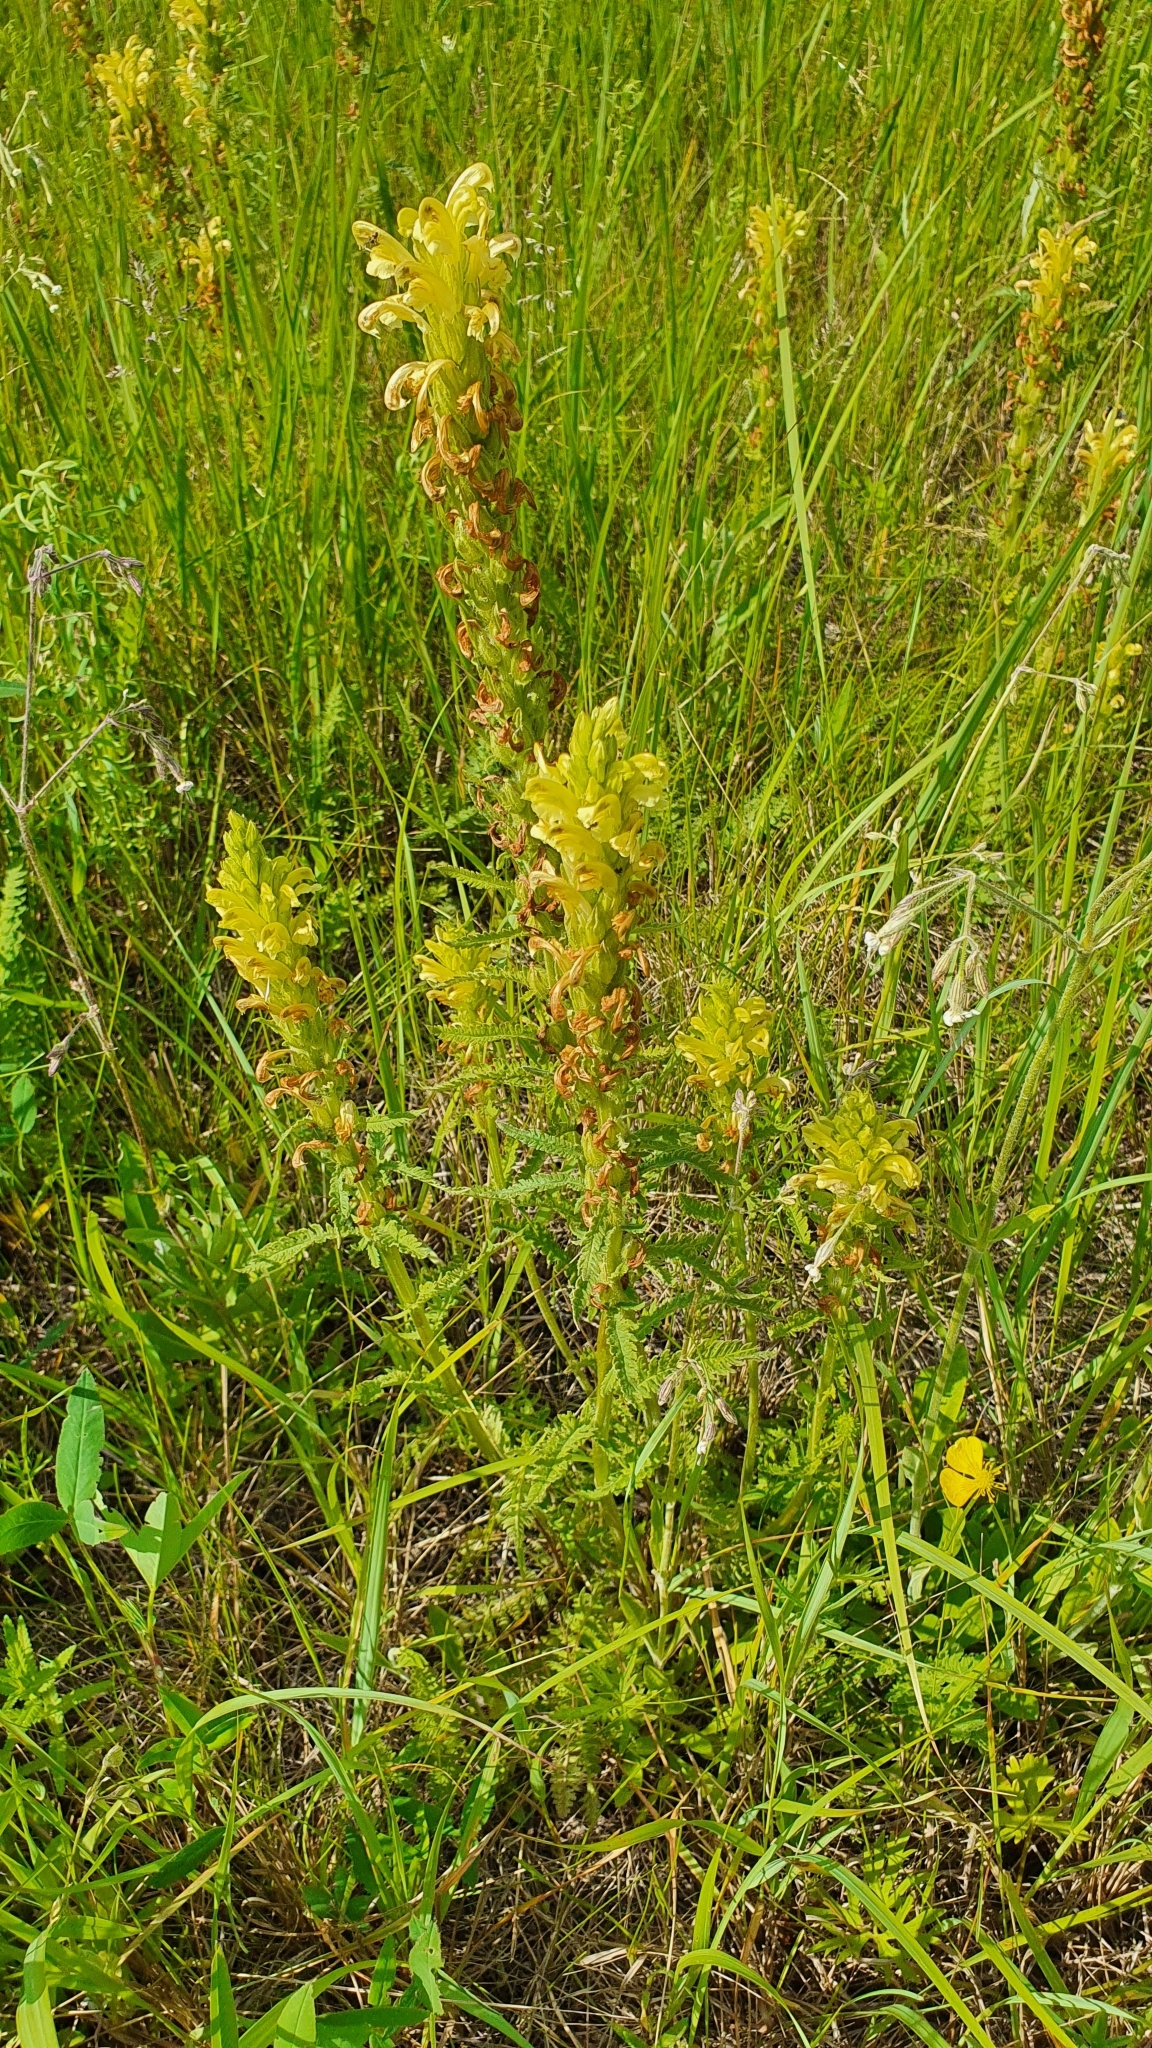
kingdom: Plantae
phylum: Tracheophyta
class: Magnoliopsida
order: Lamiales
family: Orobanchaceae
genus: Pedicularis
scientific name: Pedicularis kaufmannii
